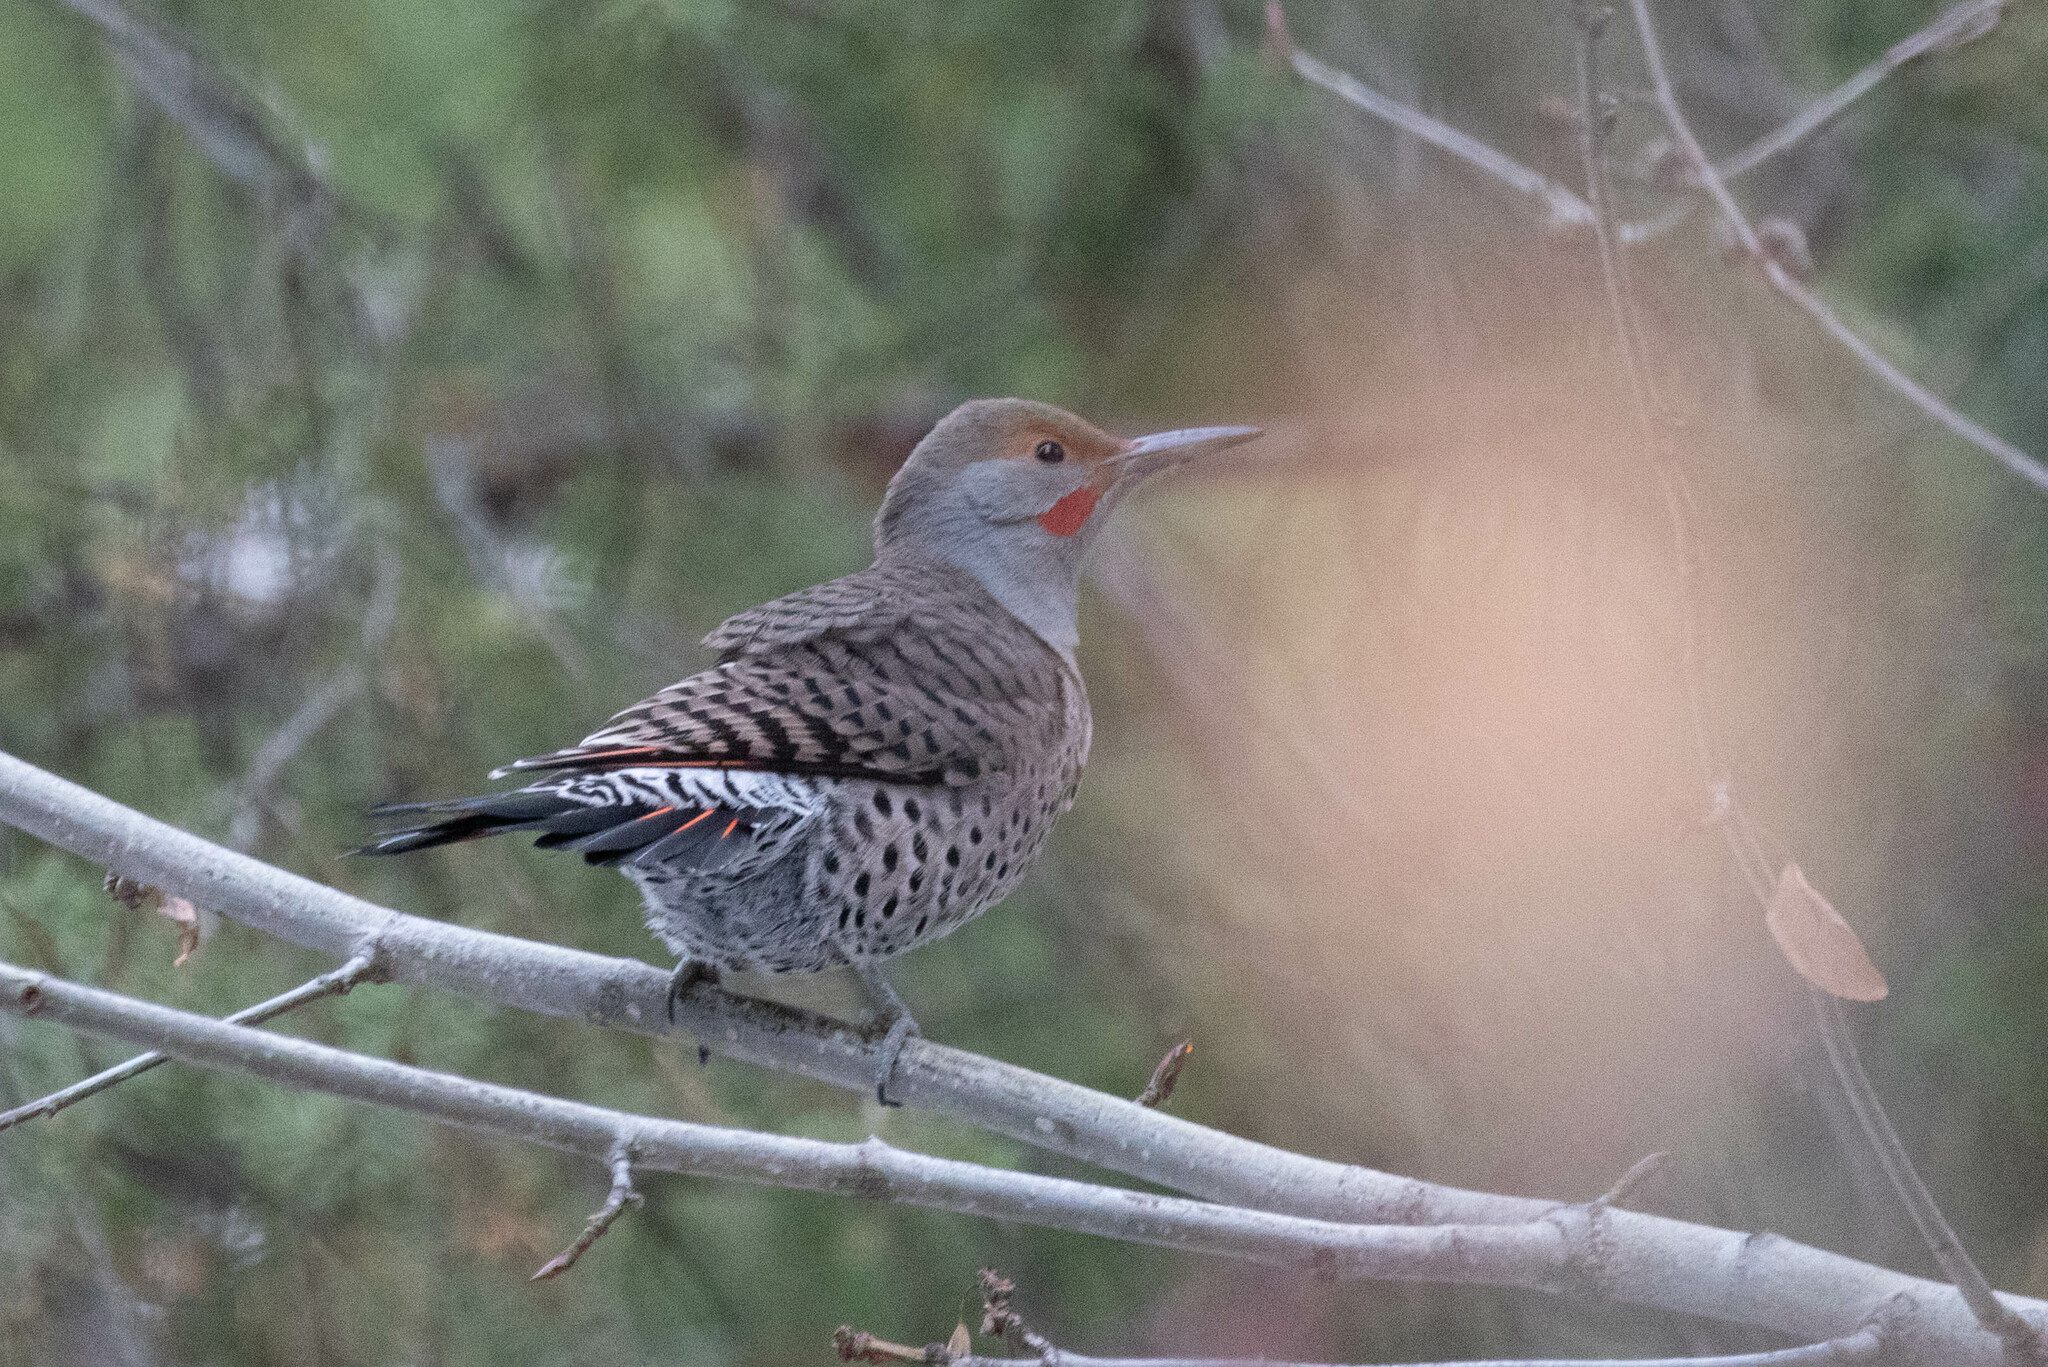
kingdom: Animalia
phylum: Chordata
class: Aves
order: Piciformes
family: Picidae
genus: Colaptes
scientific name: Colaptes auratus
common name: Northern flicker
